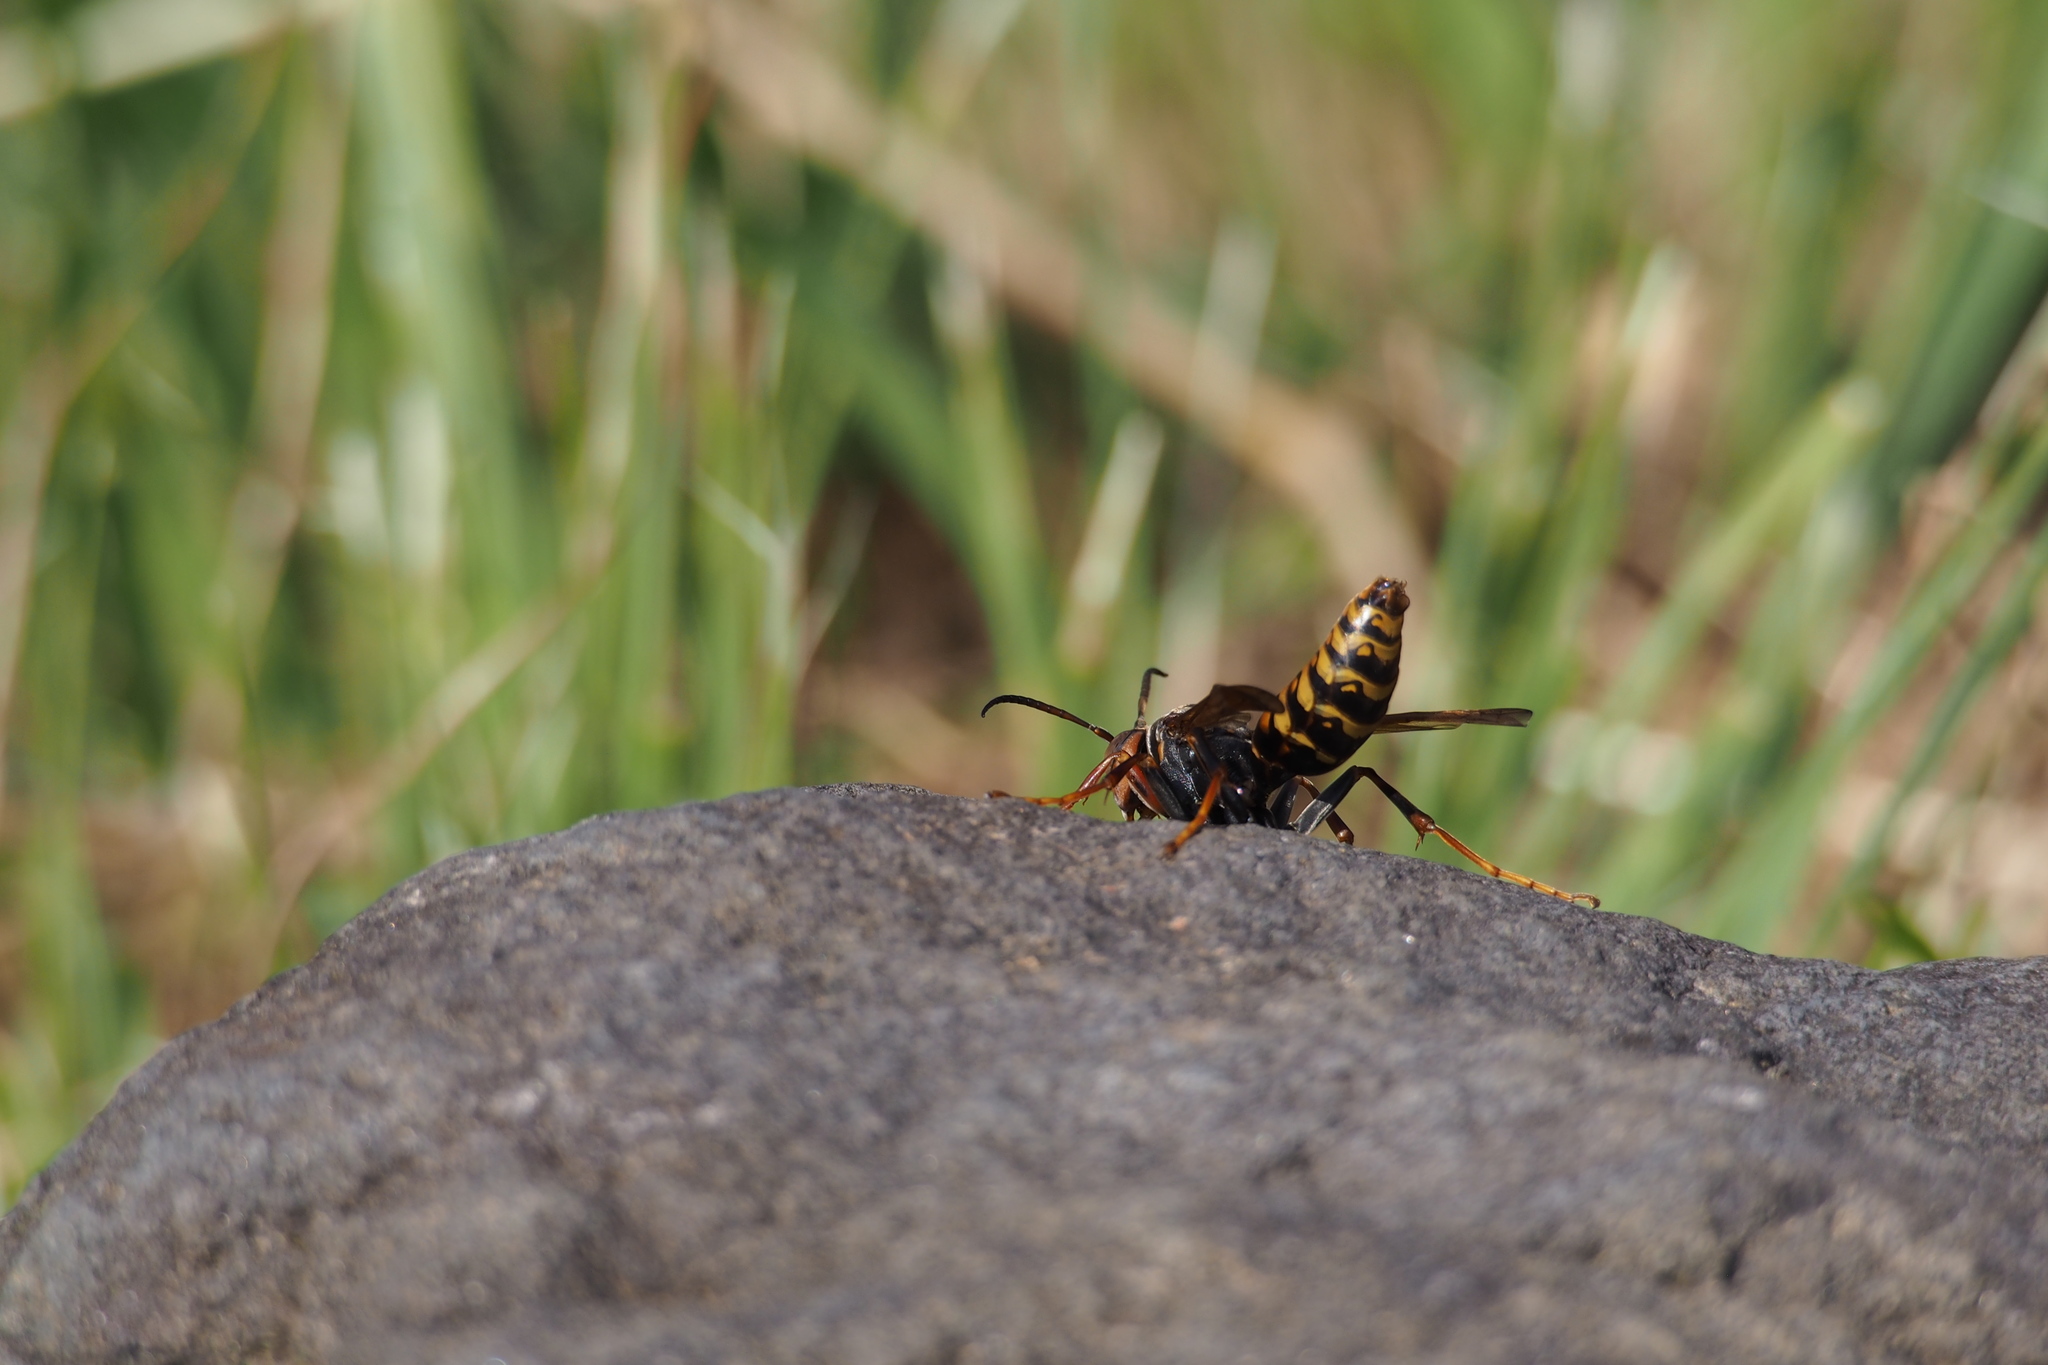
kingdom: Animalia
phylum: Arthropoda
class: Insecta
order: Hymenoptera
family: Eumenidae
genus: Polistes
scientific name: Polistes jokahamae
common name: Paper wasp
